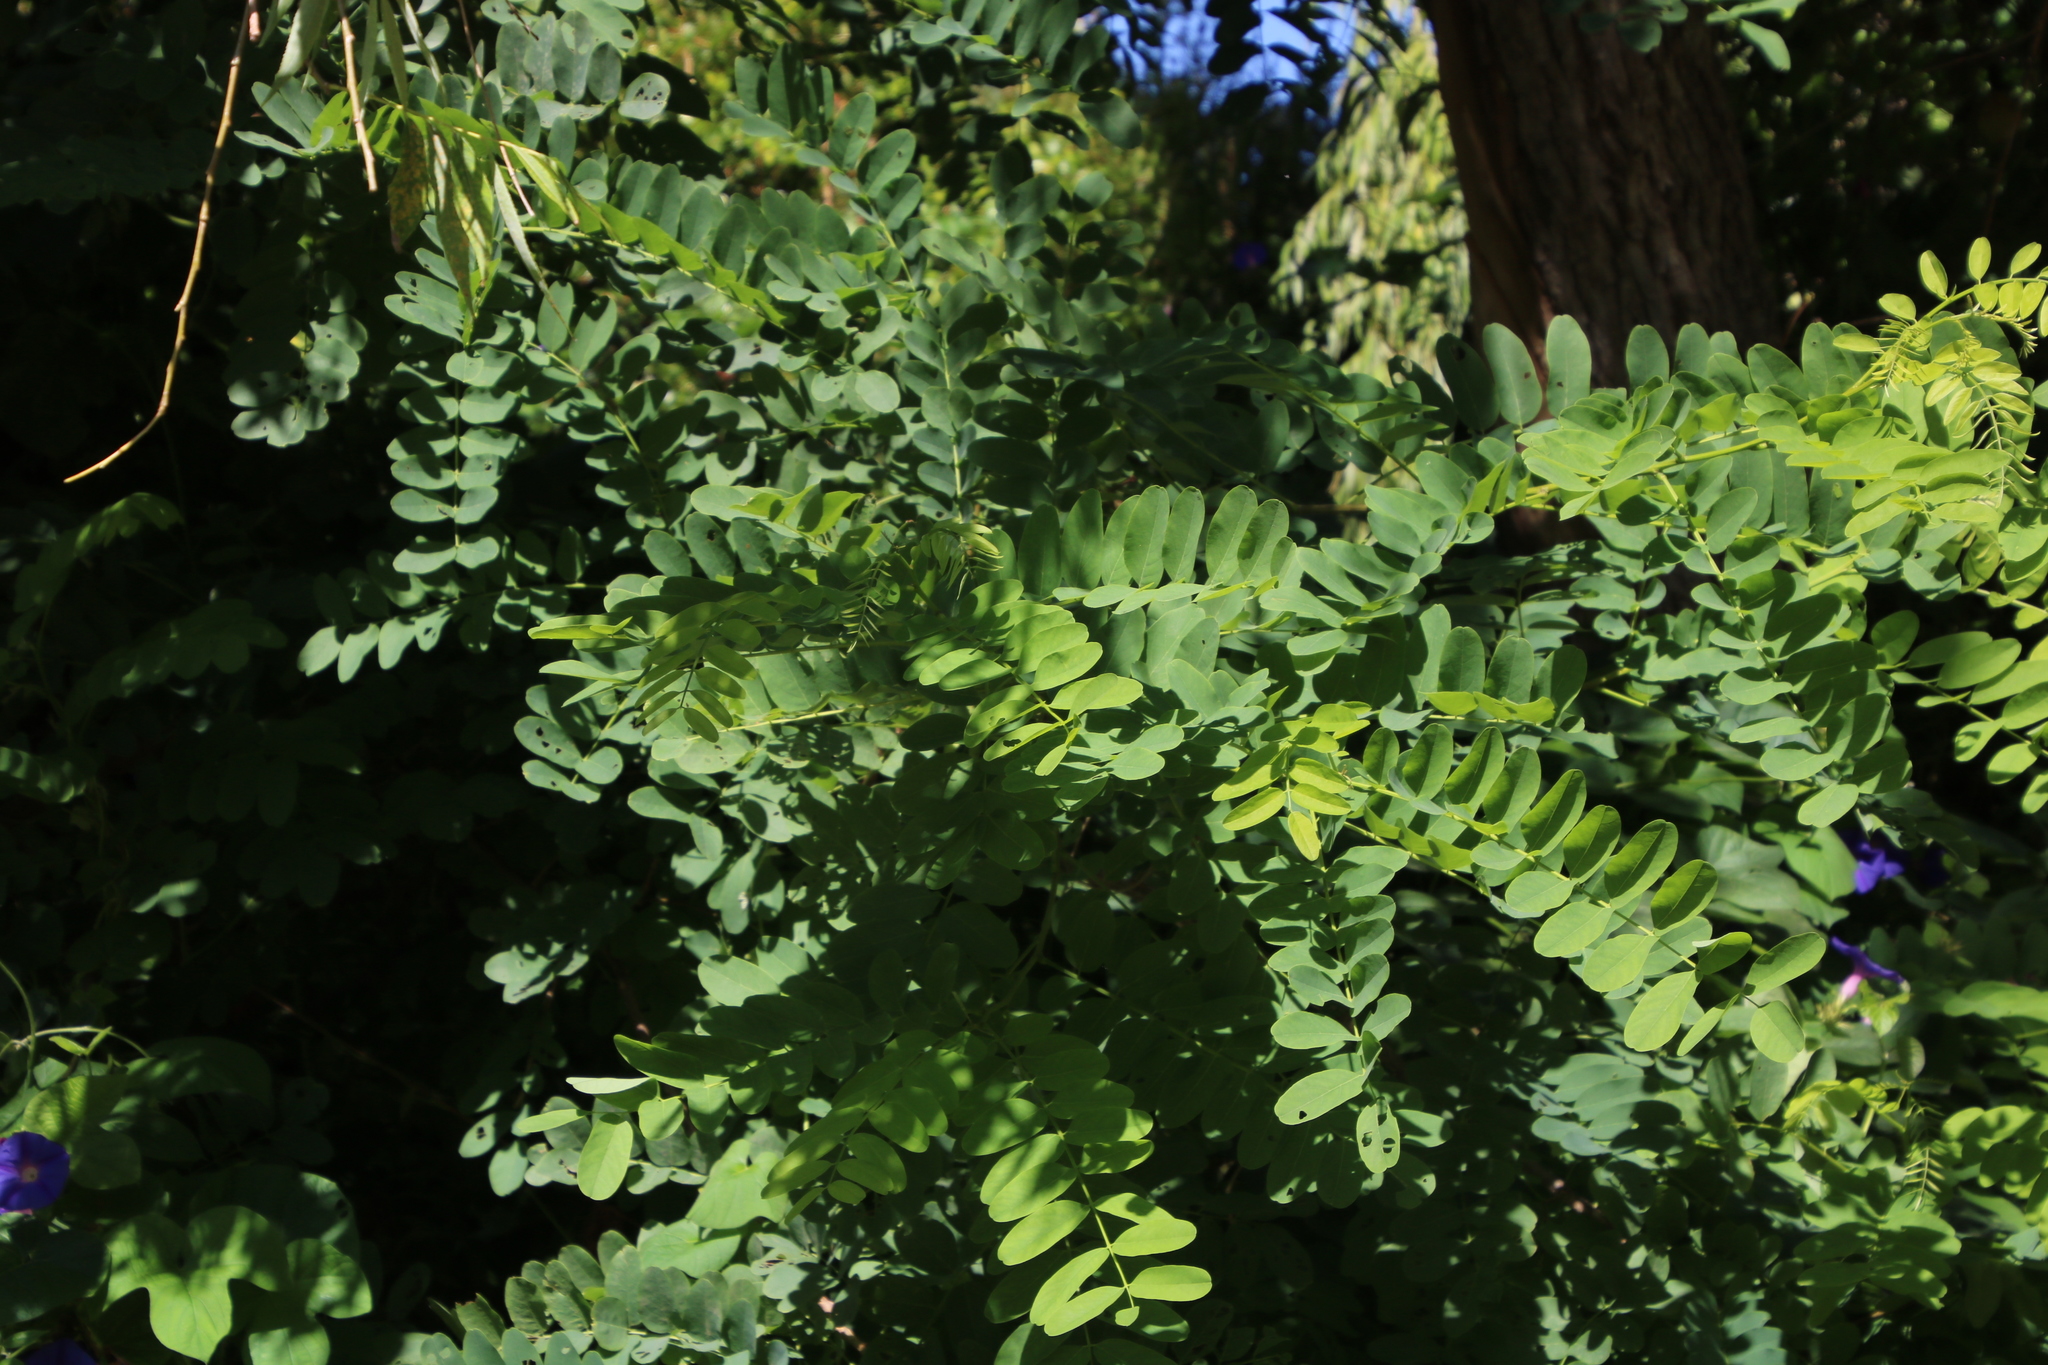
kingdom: Plantae
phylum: Tracheophyta
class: Magnoliopsida
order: Fabales
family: Fabaceae
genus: Robinia
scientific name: Robinia pseudoacacia
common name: Black locust
